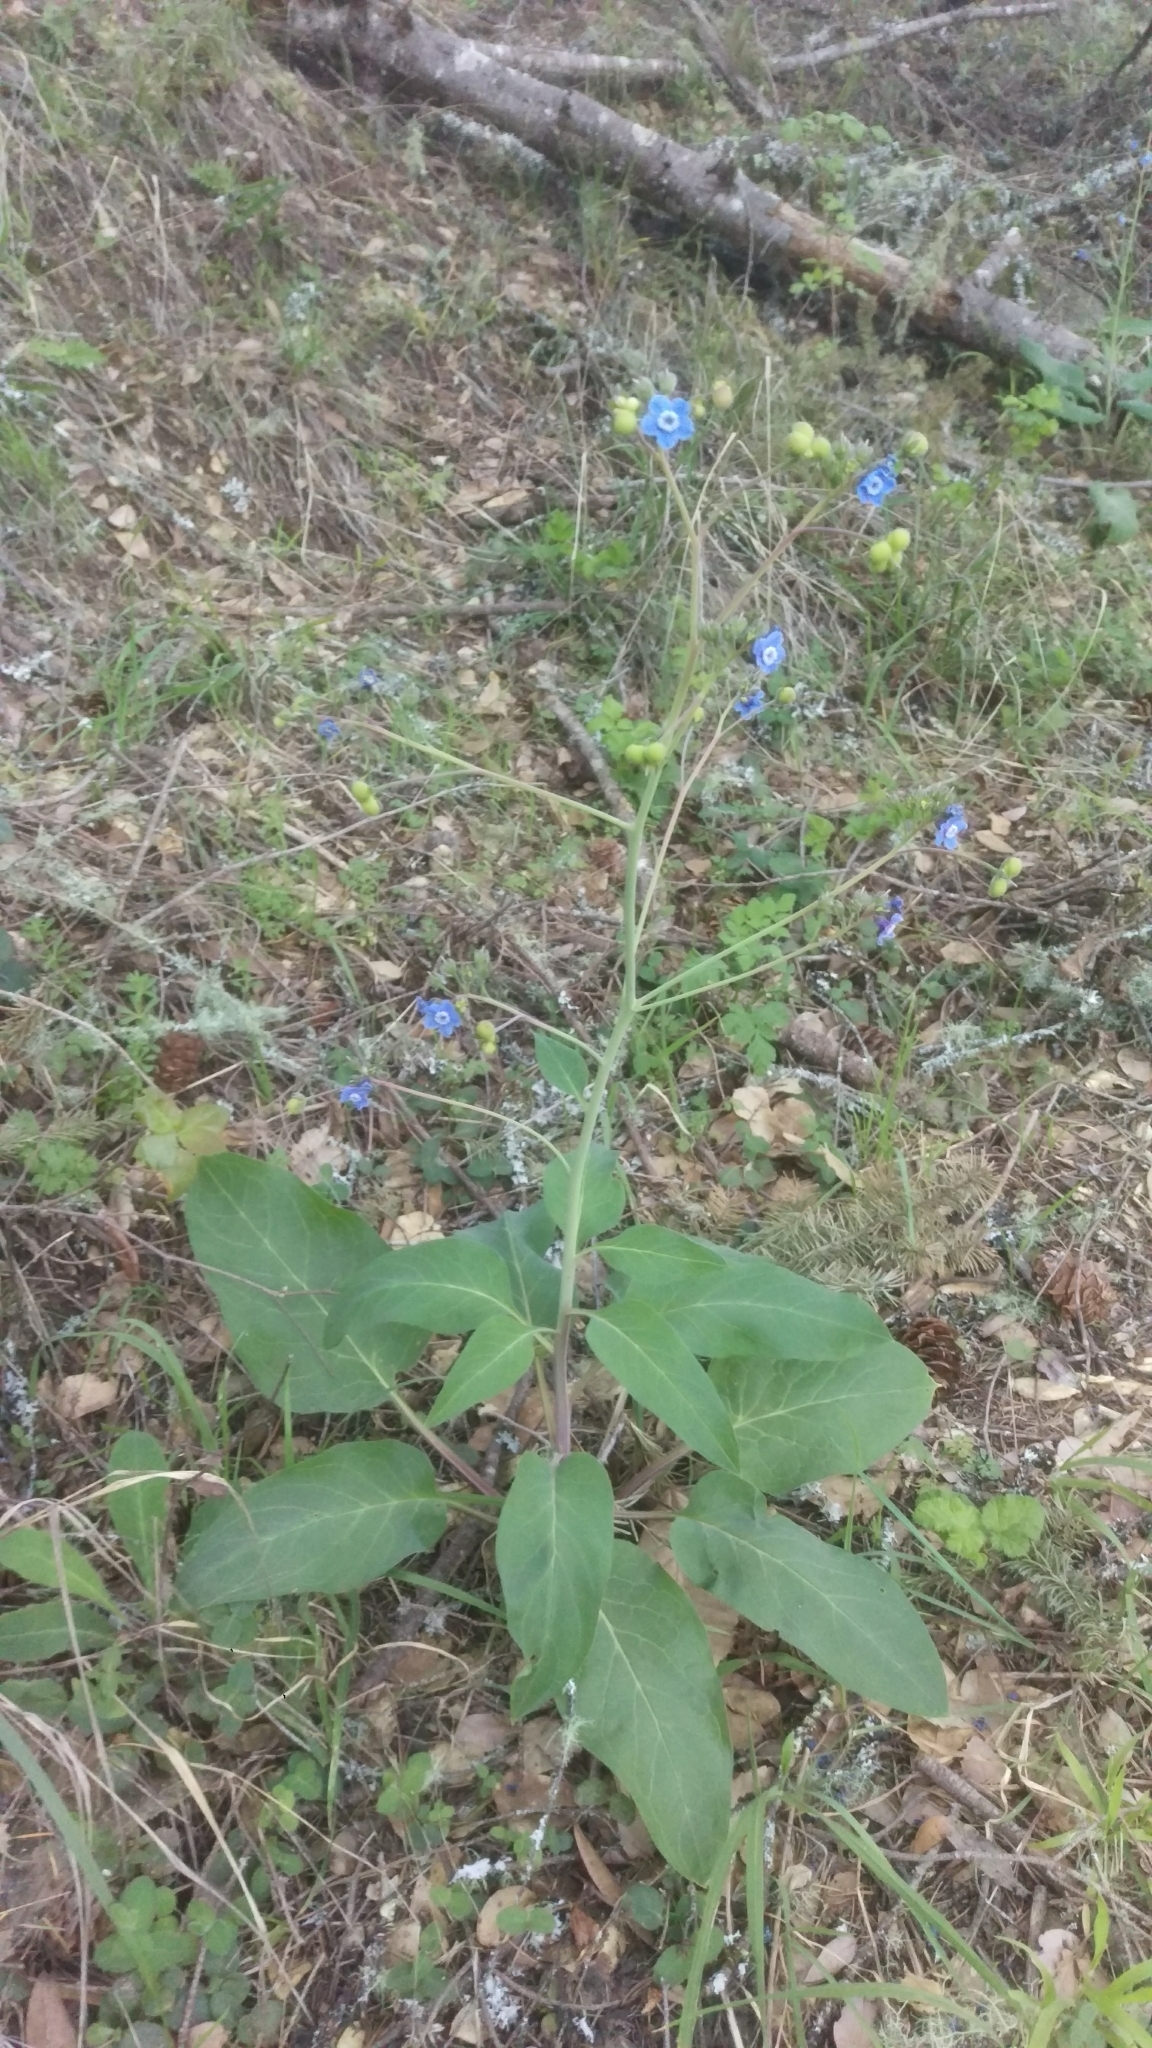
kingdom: Plantae
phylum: Tracheophyta
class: Magnoliopsida
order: Boraginales
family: Boraginaceae
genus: Adelinia
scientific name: Adelinia grande
